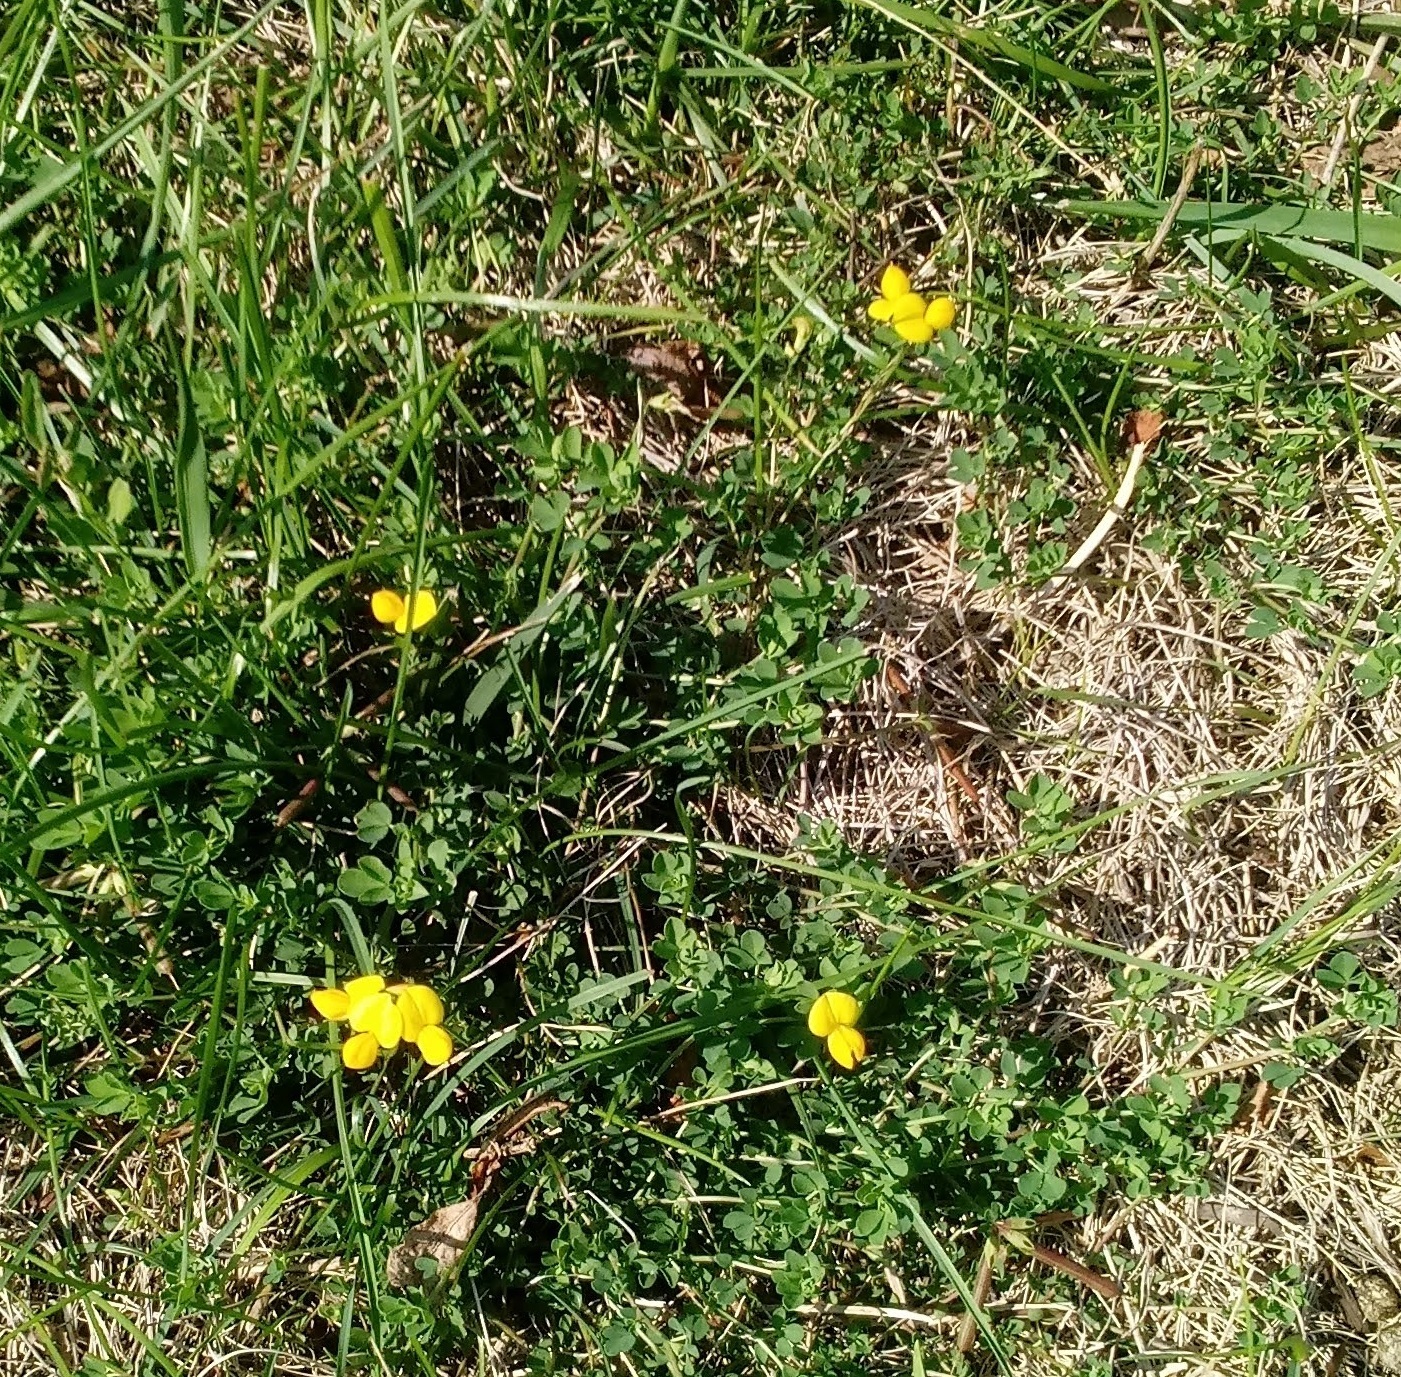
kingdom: Plantae
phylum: Tracheophyta
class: Magnoliopsida
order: Fabales
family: Fabaceae
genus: Lotus
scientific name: Lotus corniculatus
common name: Common bird's-foot-trefoil
